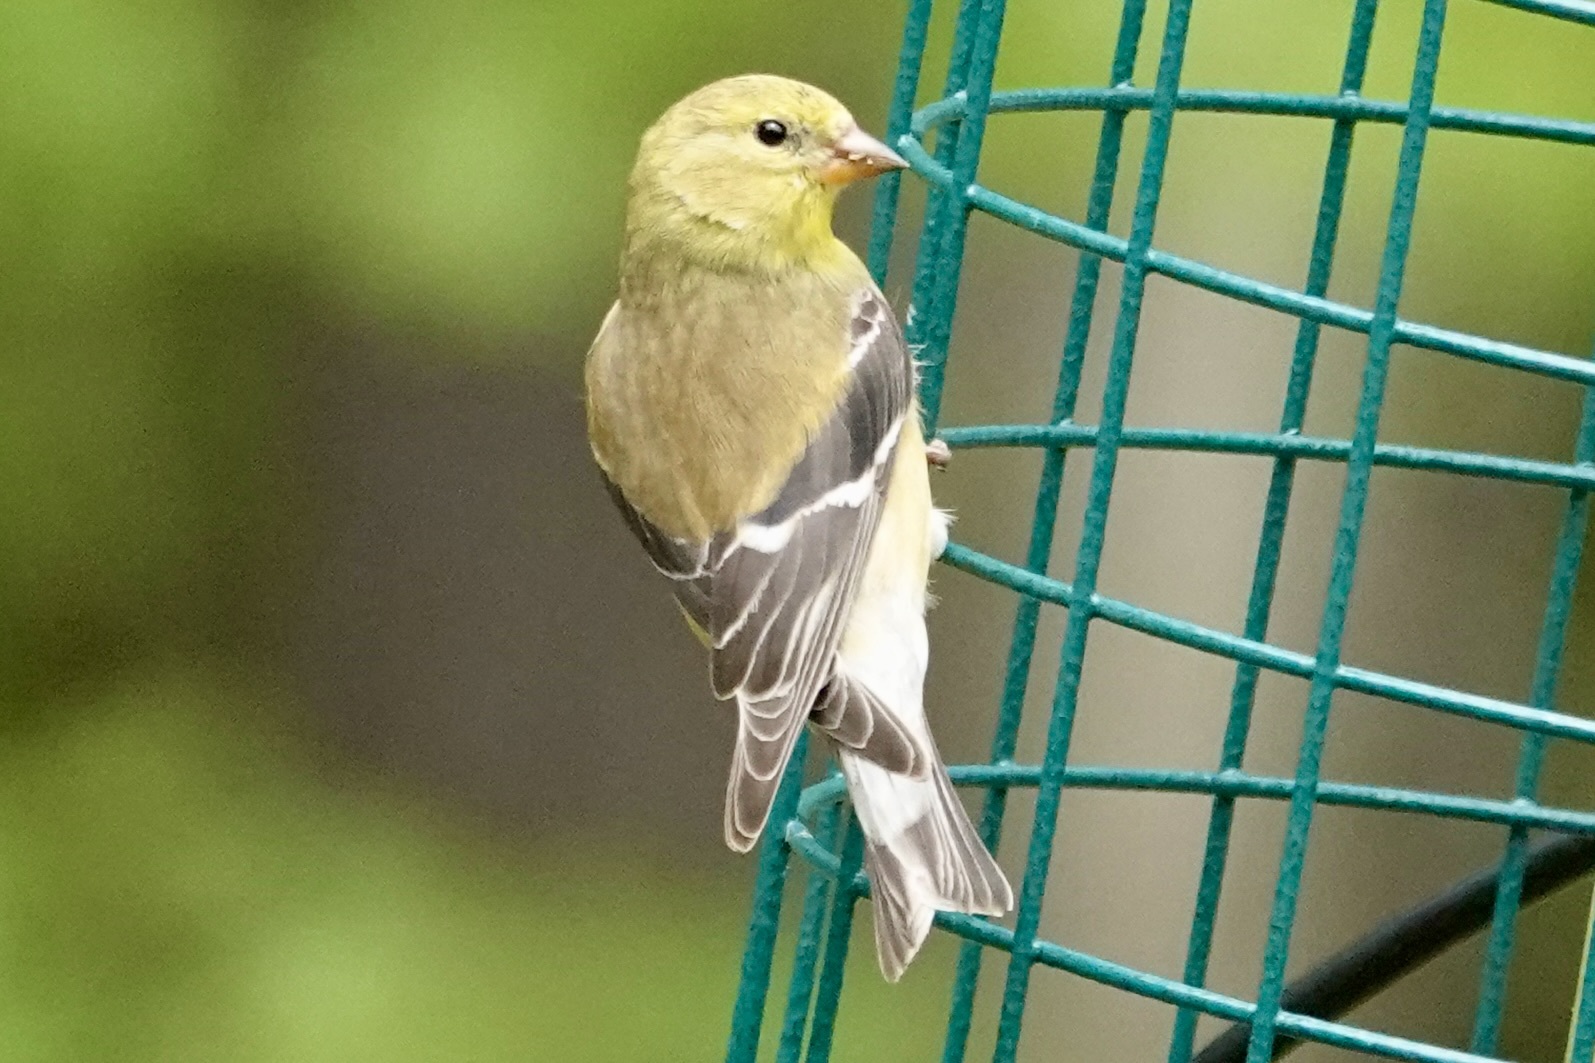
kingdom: Animalia
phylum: Chordata
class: Aves
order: Passeriformes
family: Fringillidae
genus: Spinus
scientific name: Spinus tristis
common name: American goldfinch
